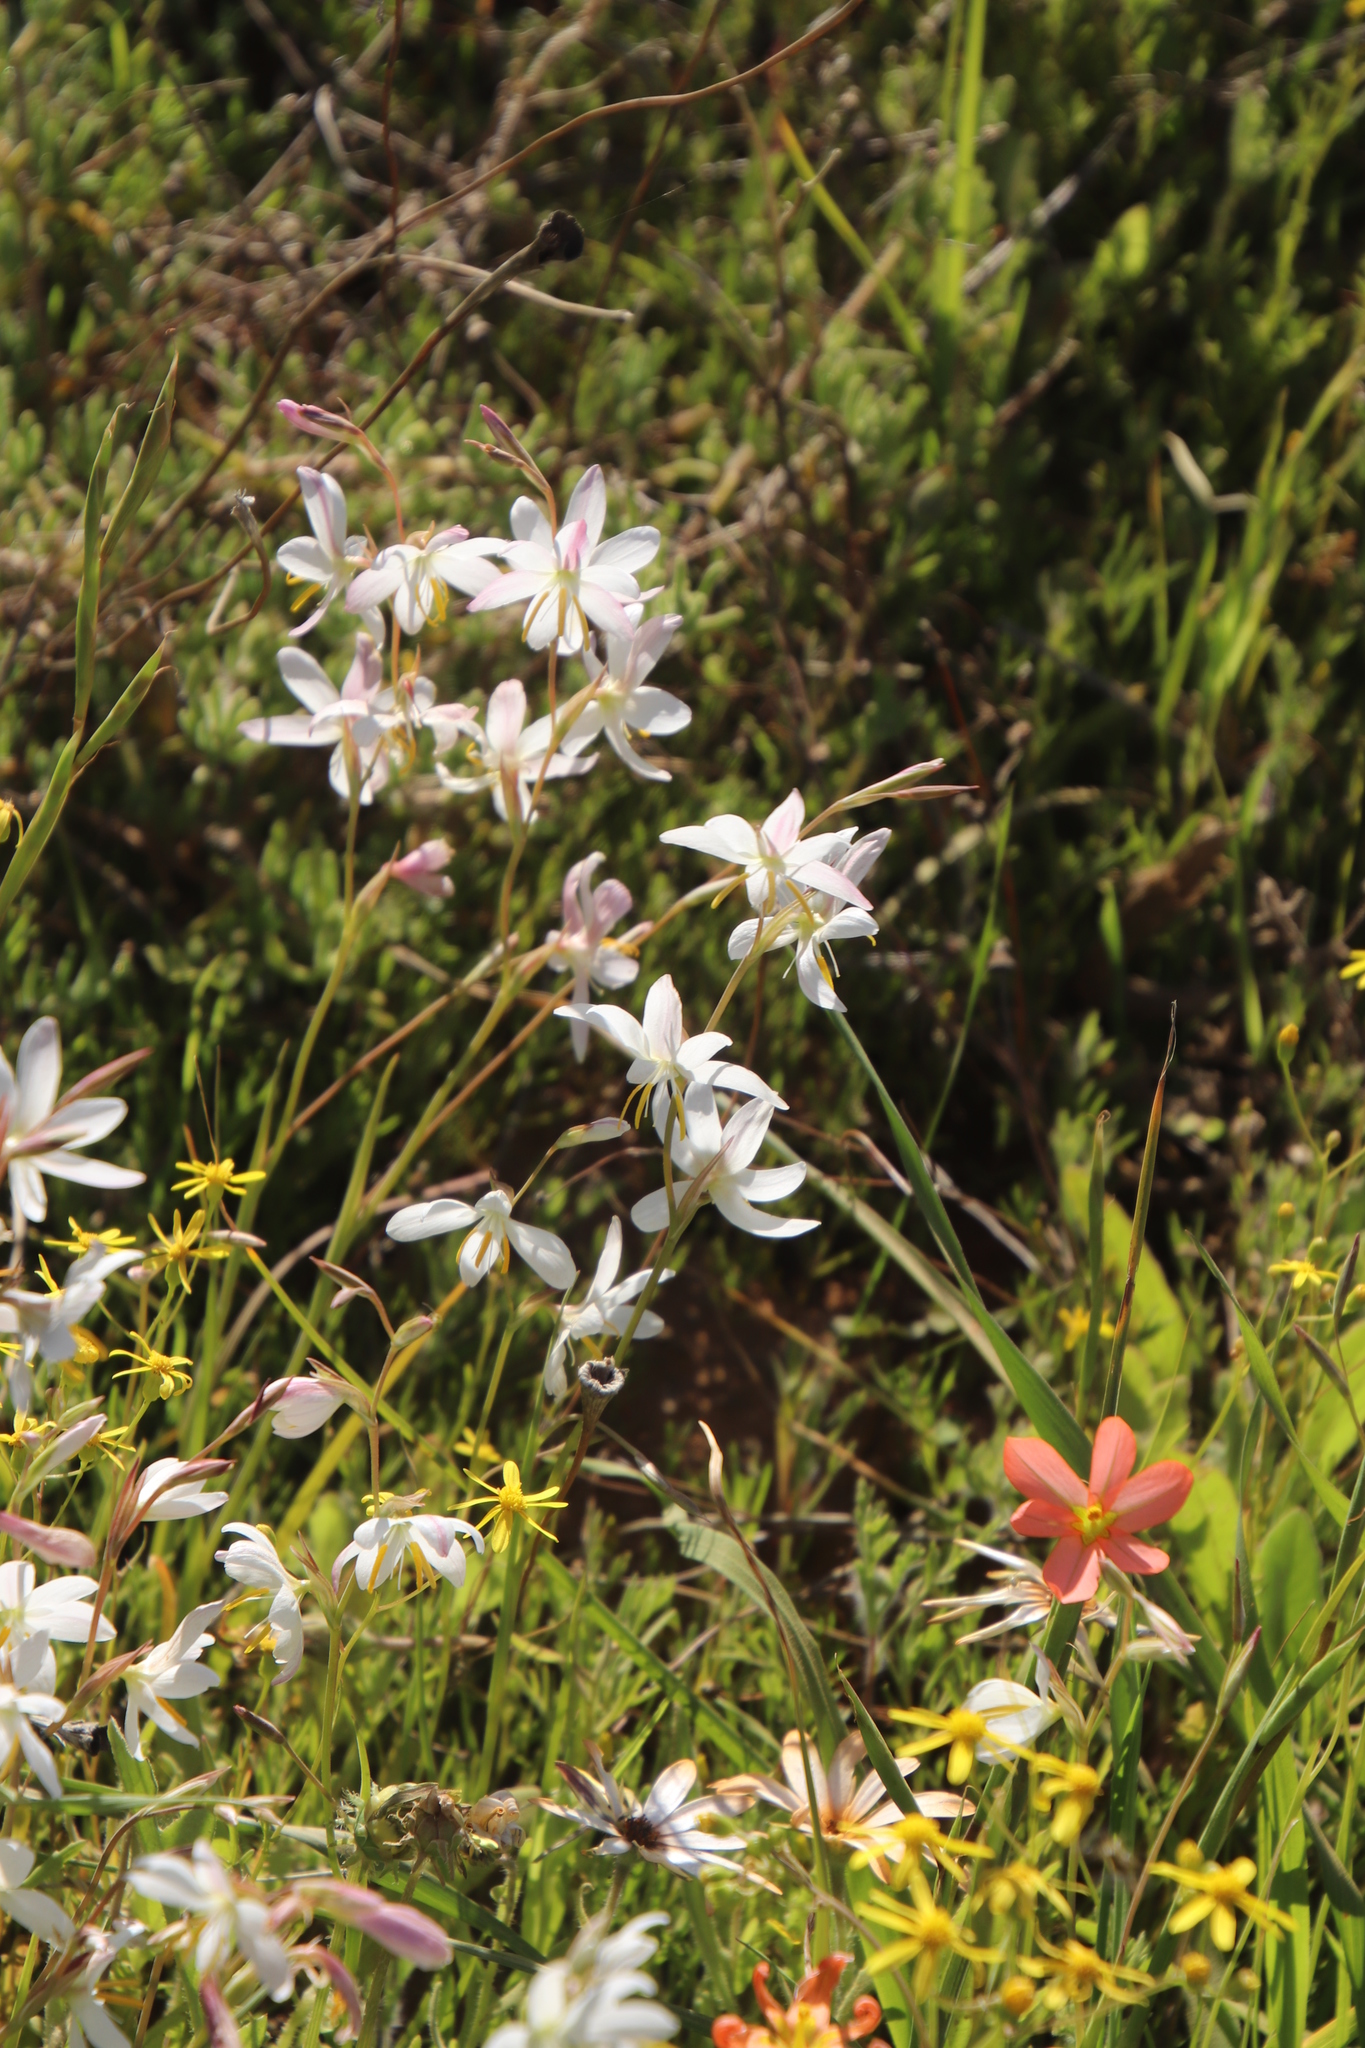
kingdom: Plantae
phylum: Tracheophyta
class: Liliopsida
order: Asparagales
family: Iridaceae
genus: Hesperantha
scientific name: Hesperantha bachmannii
